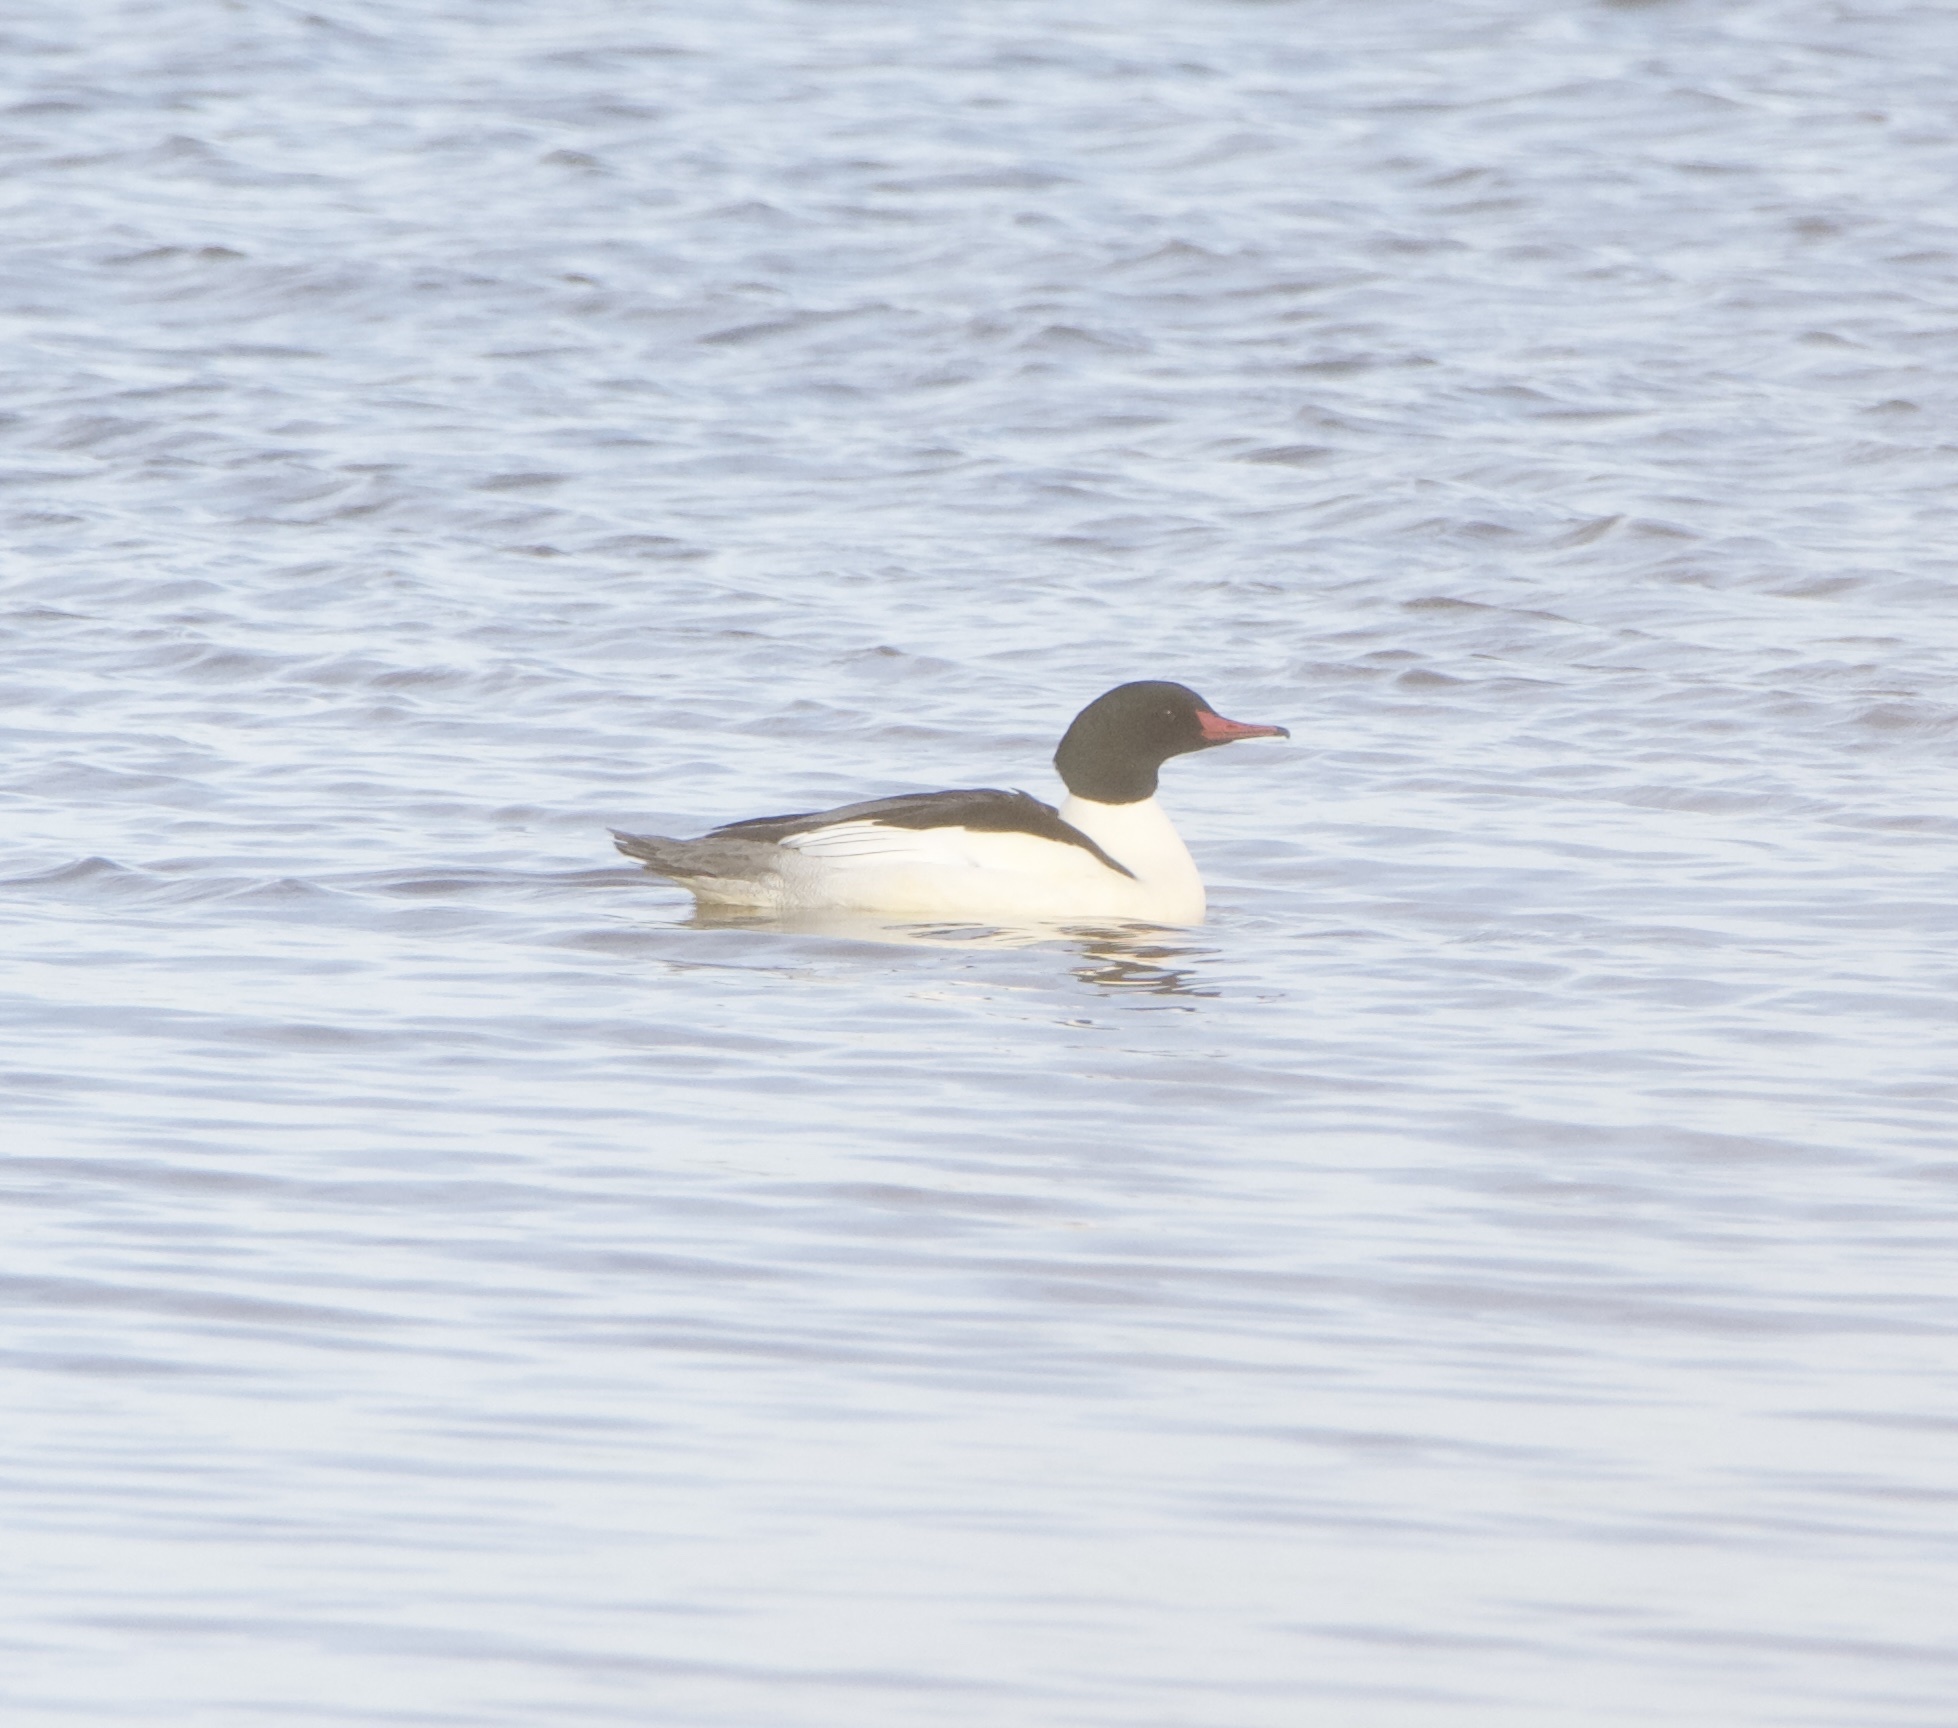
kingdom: Animalia
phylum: Chordata
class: Aves
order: Anseriformes
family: Anatidae
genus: Mergus
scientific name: Mergus merganser
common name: Common merganser
